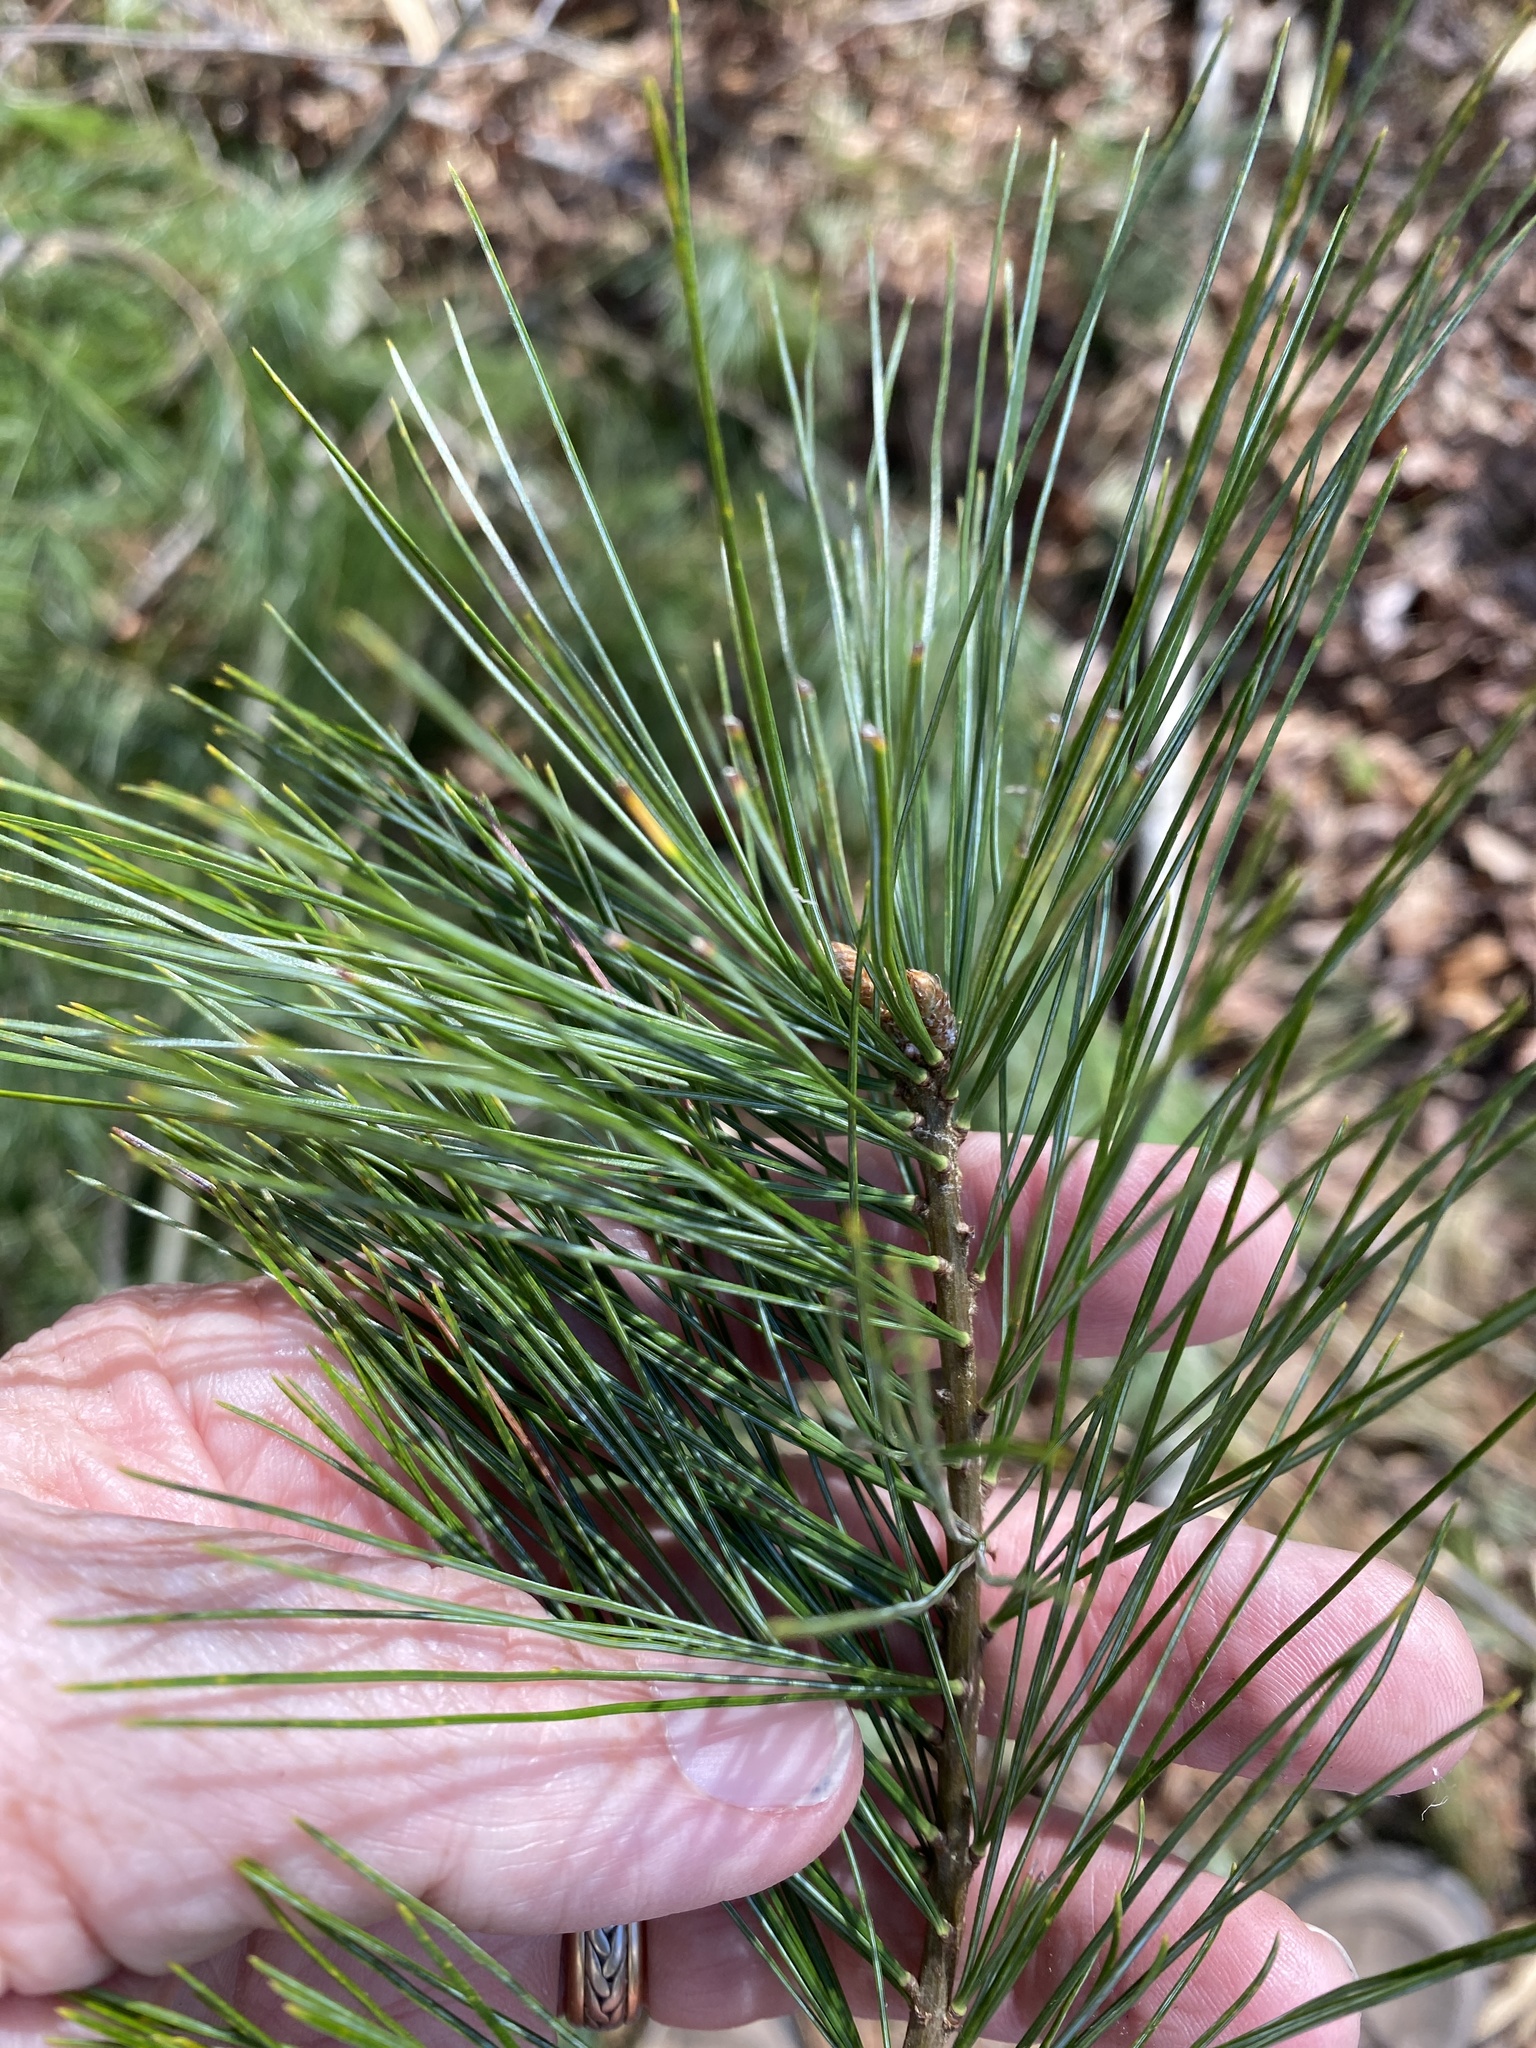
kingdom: Plantae
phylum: Tracheophyta
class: Pinopsida
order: Pinales
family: Pinaceae
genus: Pinus
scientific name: Pinus strobus
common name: Weymouth pine
